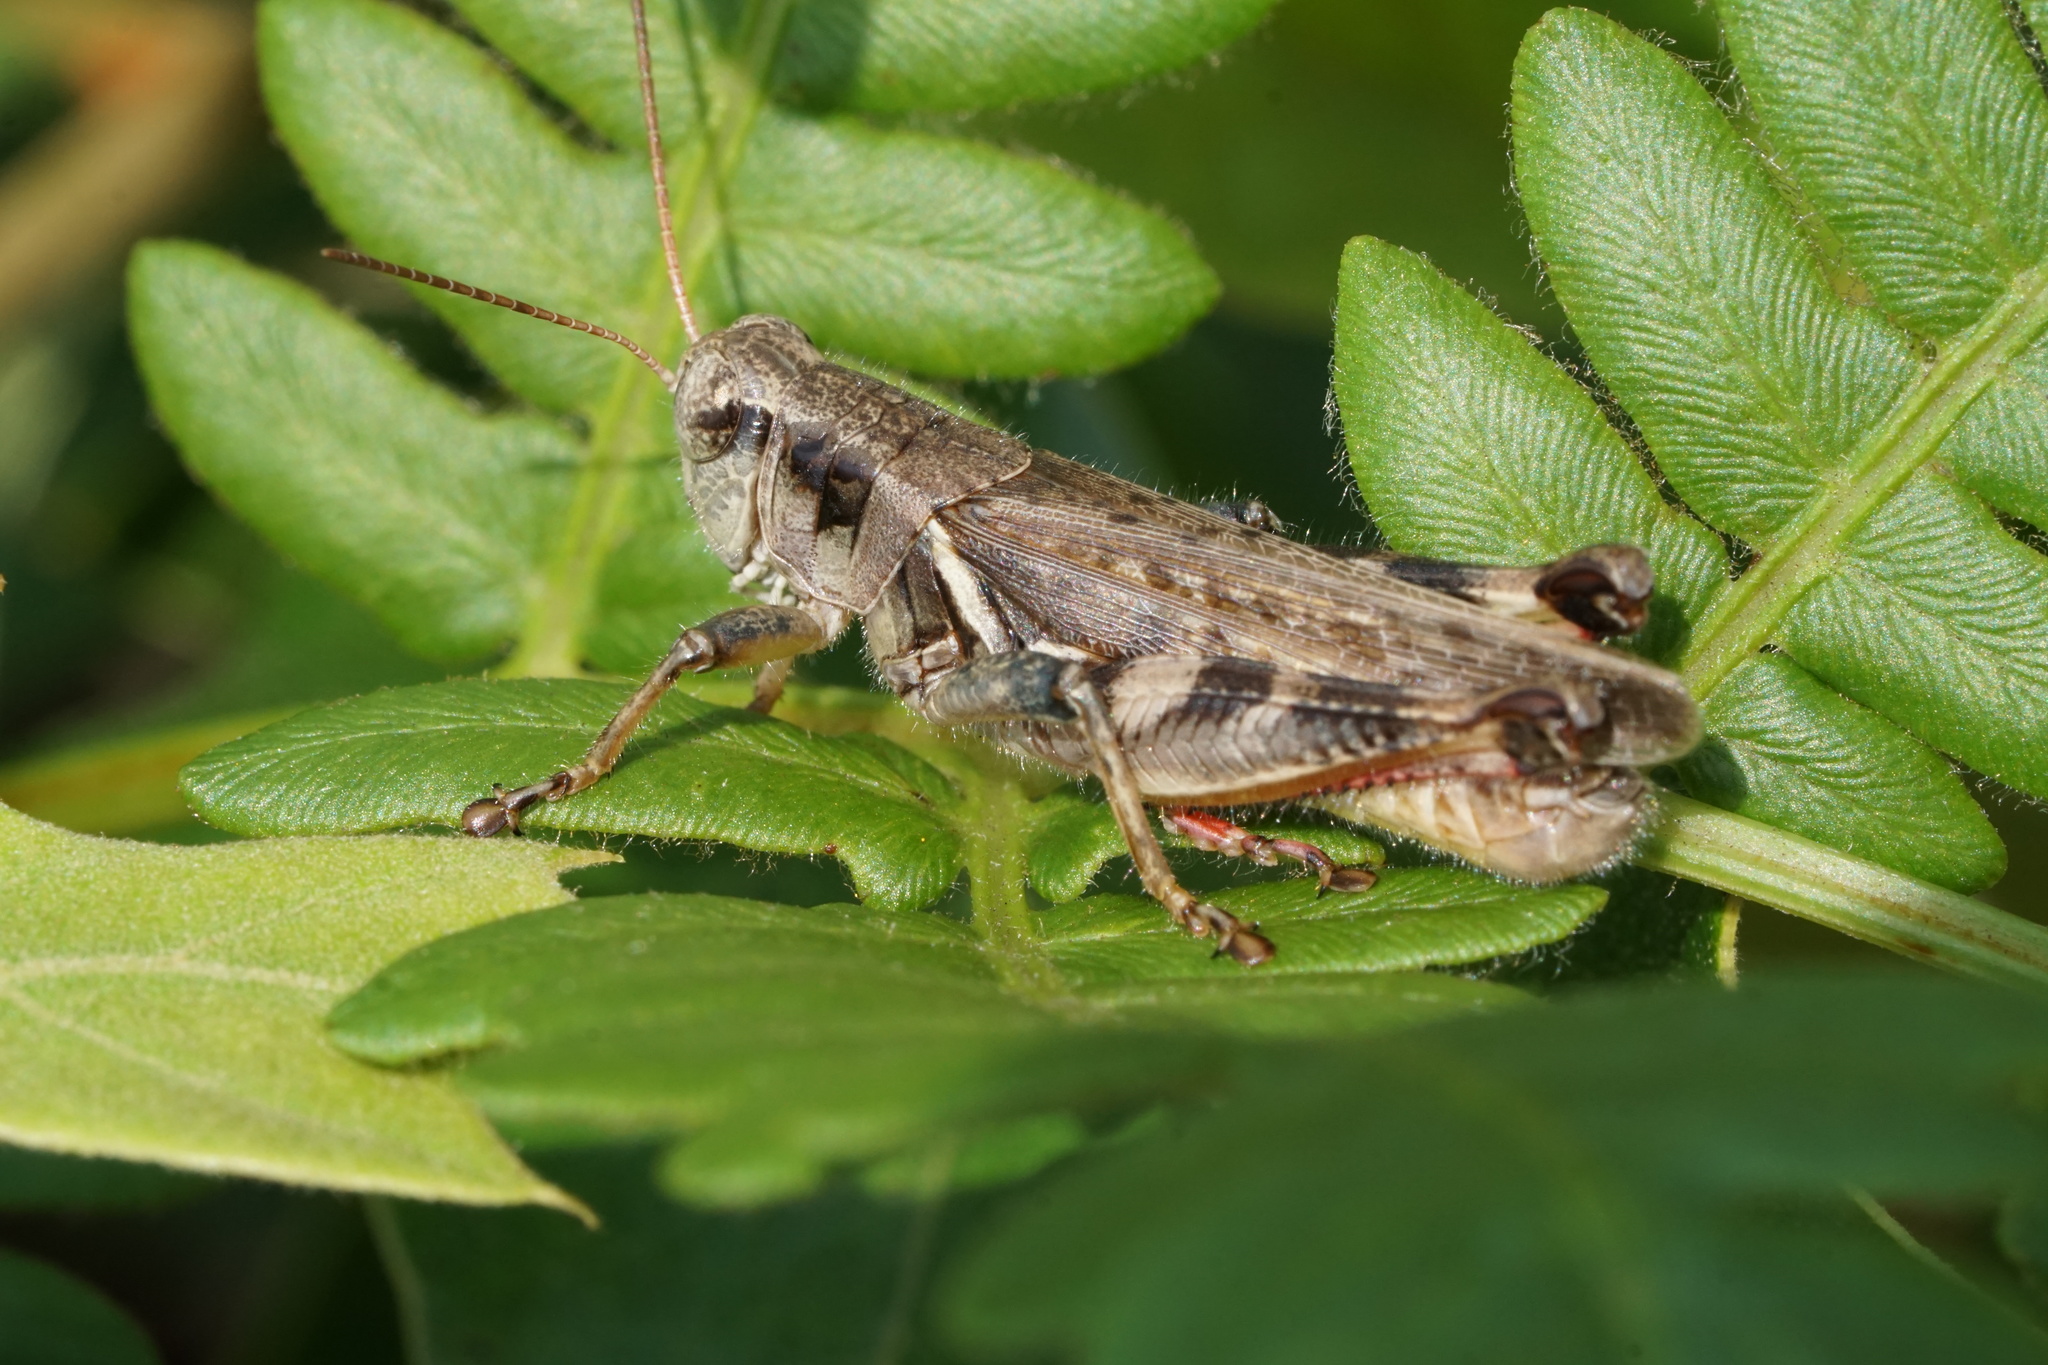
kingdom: Animalia
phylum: Arthropoda
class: Insecta
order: Orthoptera
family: Acrididae
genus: Melanoplus
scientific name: Melanoplus keeleri
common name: Keeler grasshopper
